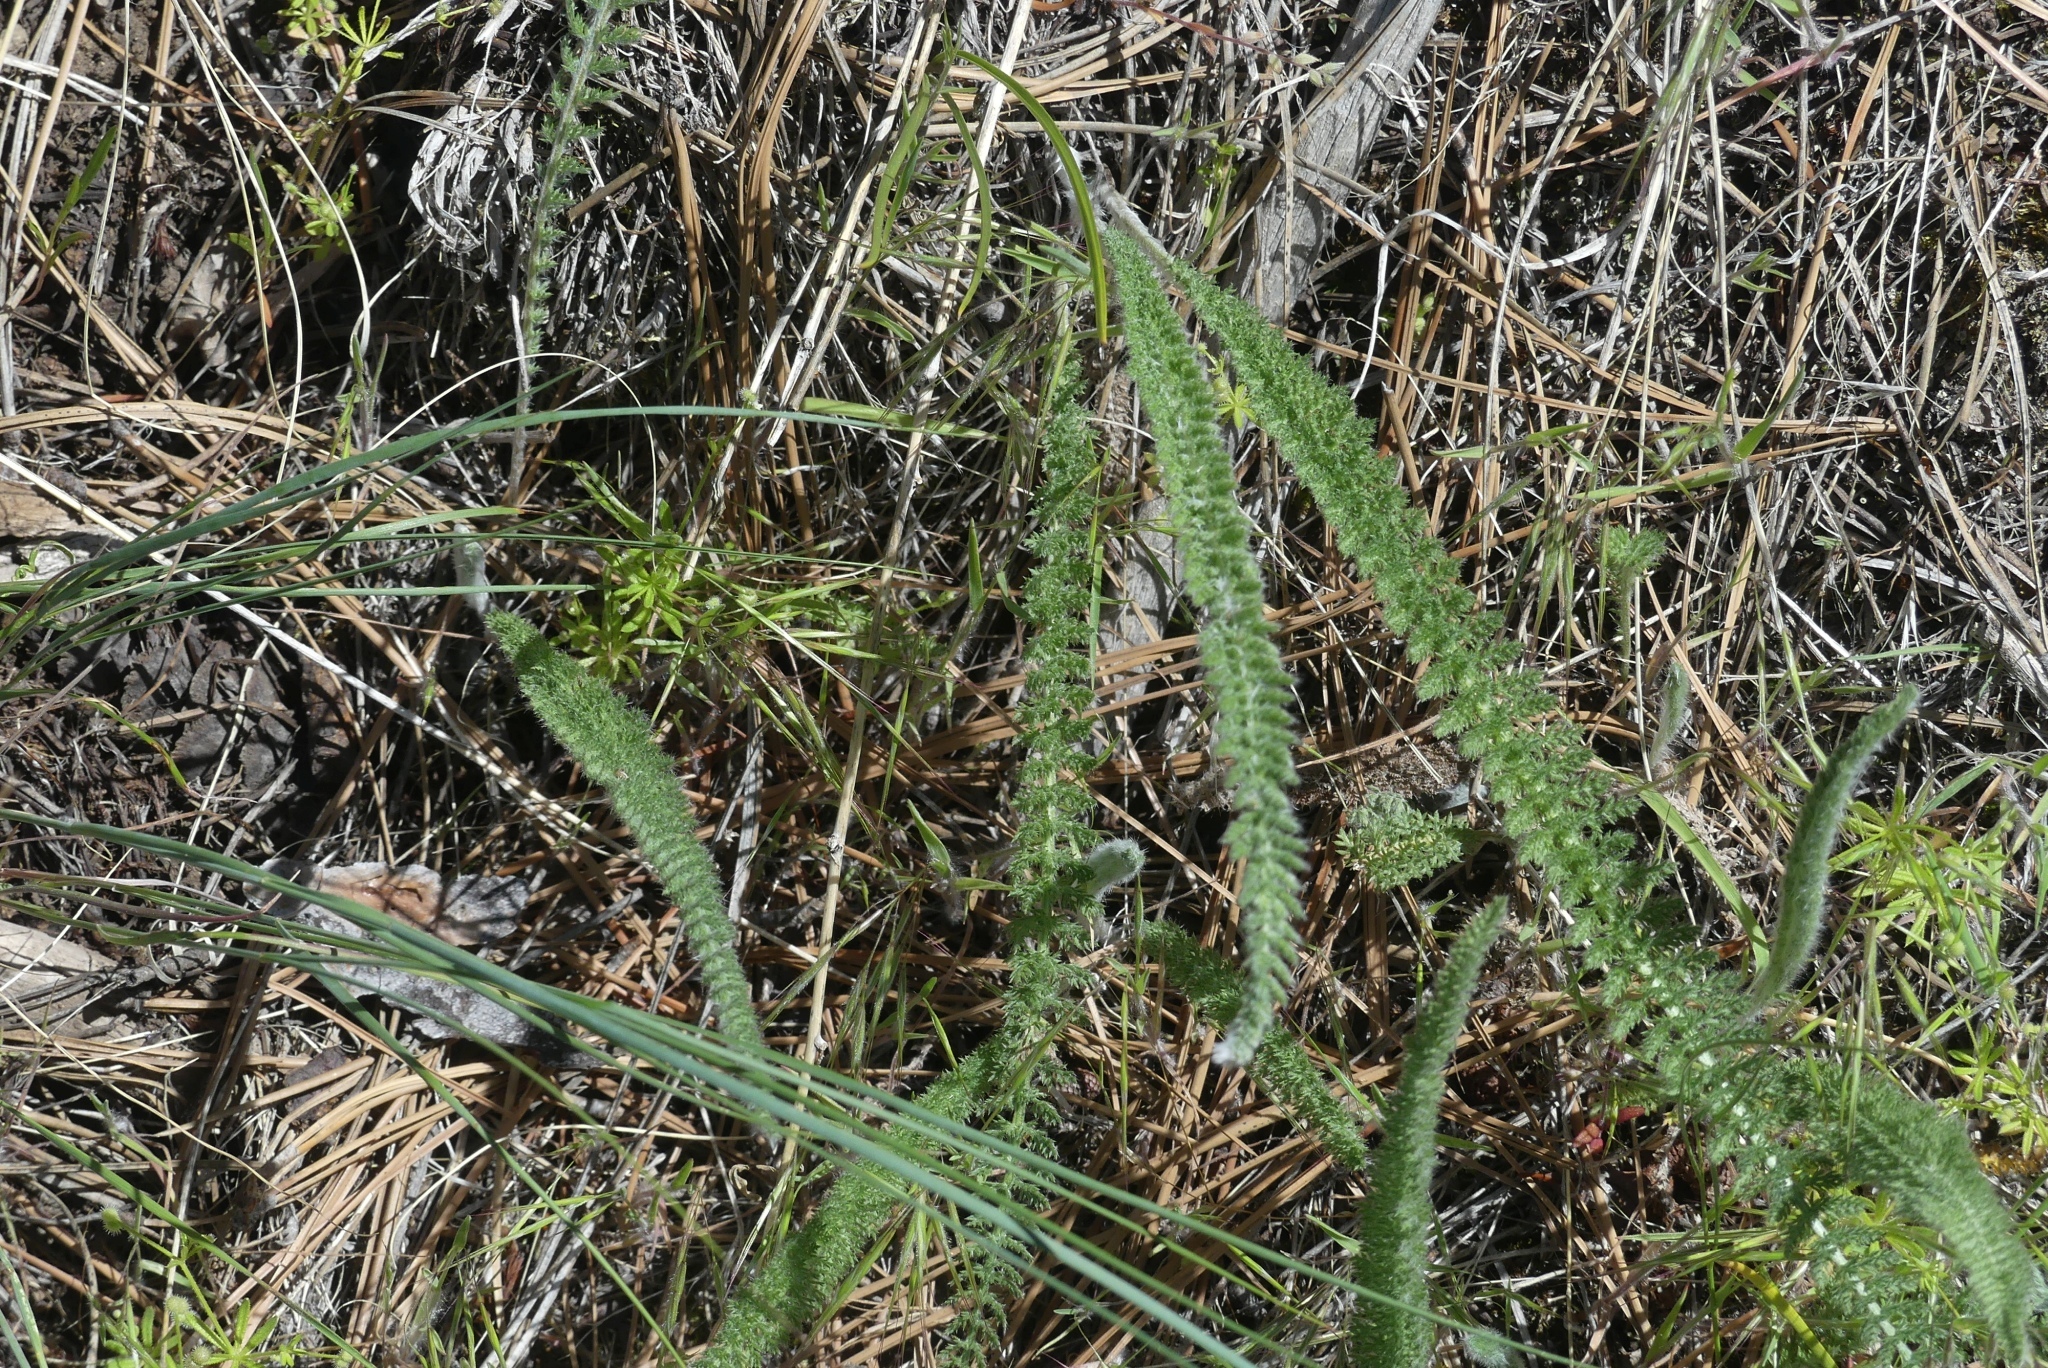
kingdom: Plantae
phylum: Tracheophyta
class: Magnoliopsida
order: Asterales
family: Asteraceae
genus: Achillea
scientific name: Achillea millefolium
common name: Yarrow
